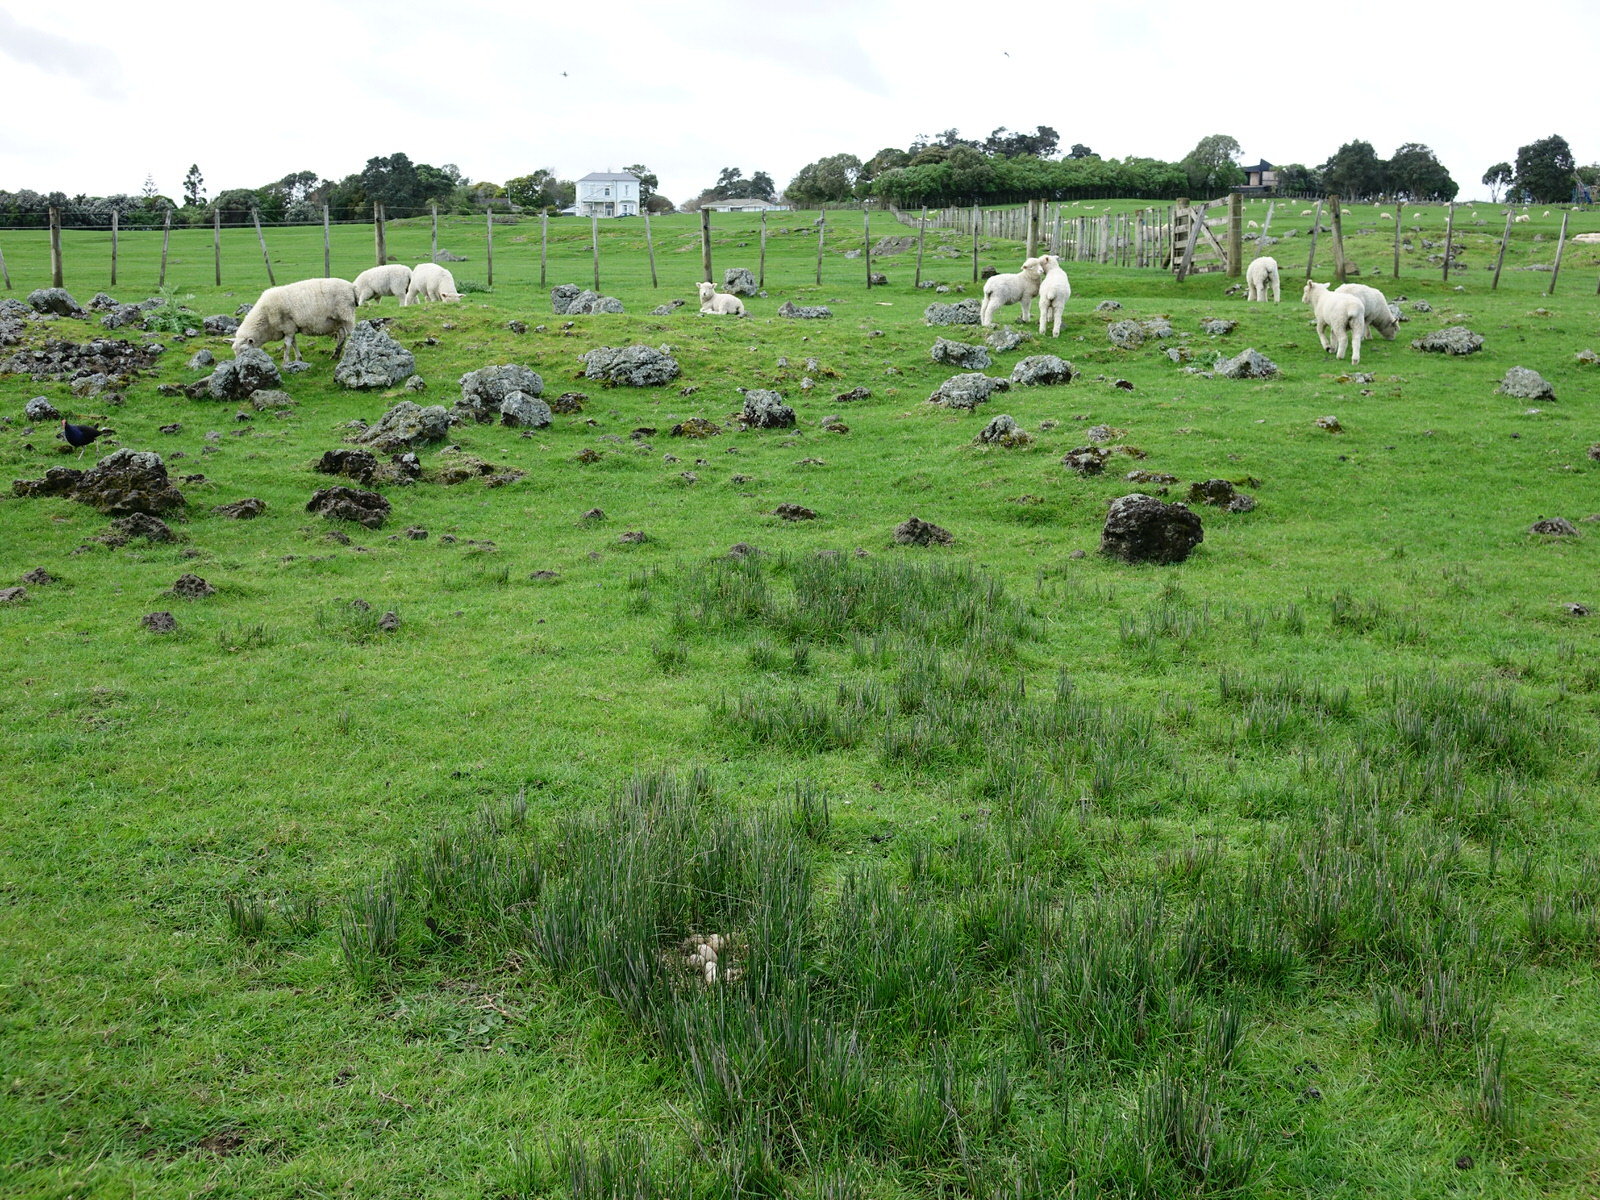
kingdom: Animalia
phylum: Chordata
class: Aves
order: Gruiformes
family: Rallidae
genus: Porphyrio
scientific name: Porphyrio melanotus
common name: Australasian swamphen
